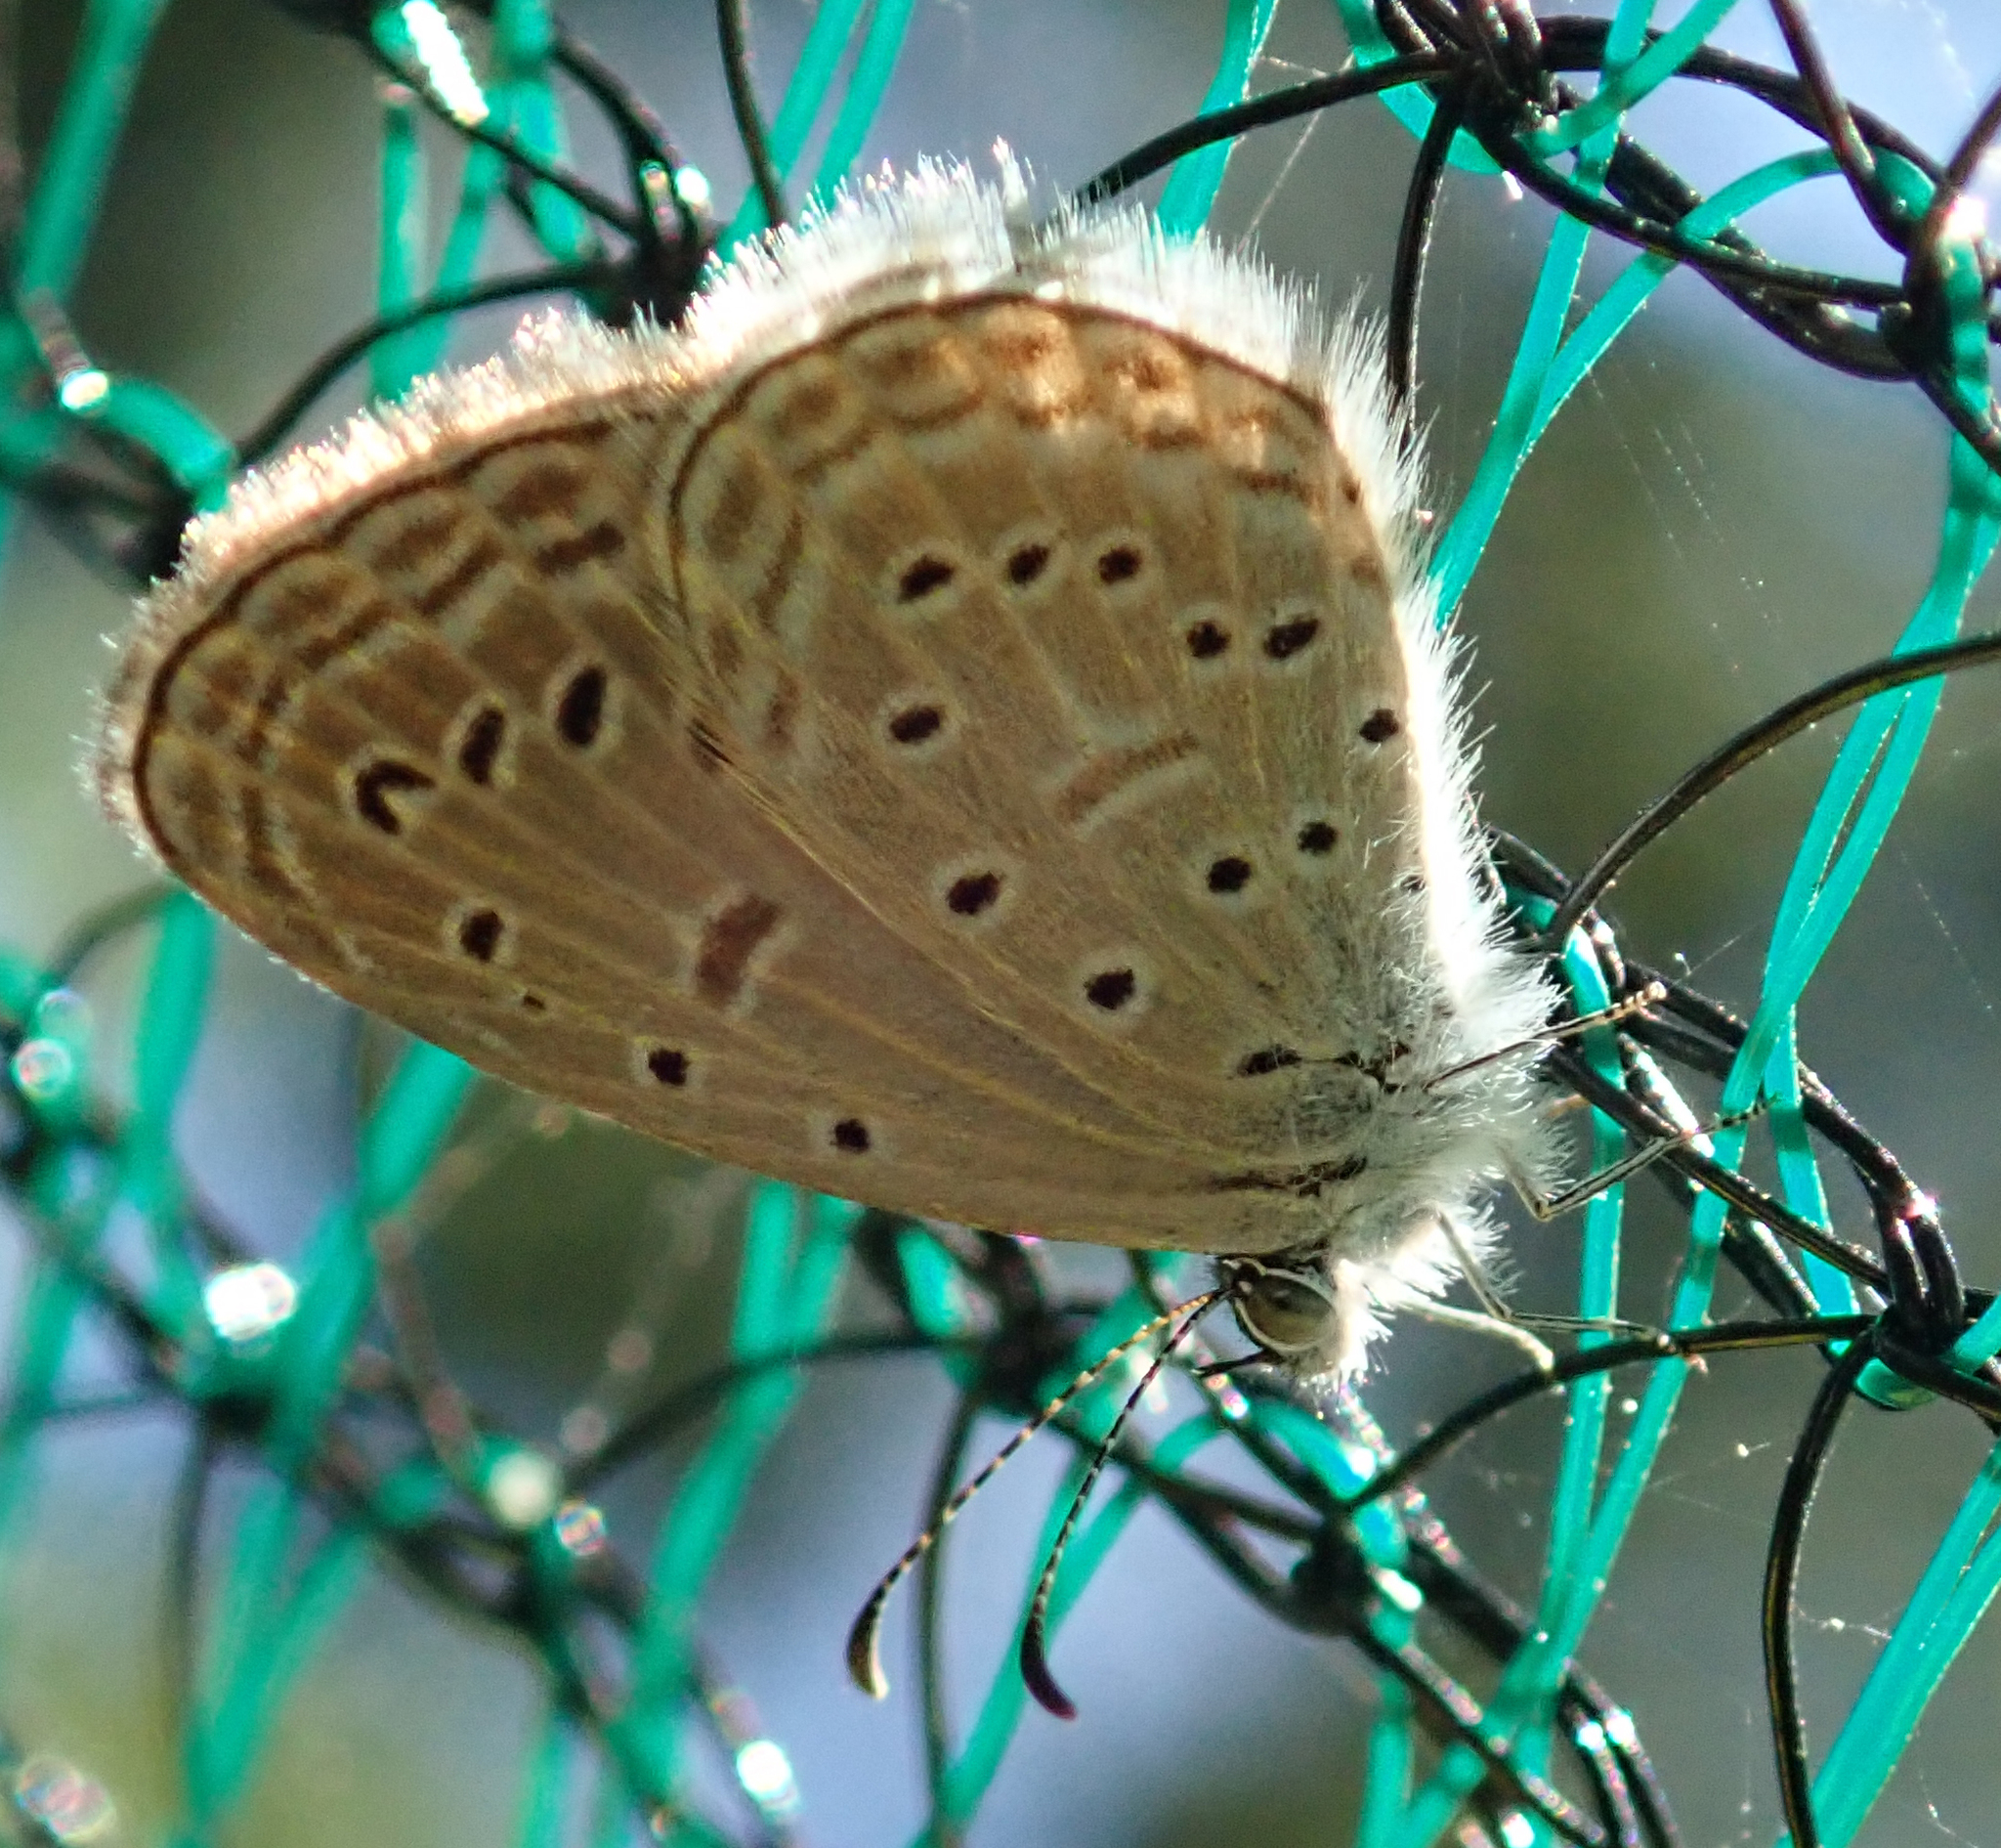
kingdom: Animalia
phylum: Arthropoda
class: Insecta
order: Lepidoptera
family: Lycaenidae
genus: Zizula
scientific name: Zizula hylax
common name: Gaika blue
